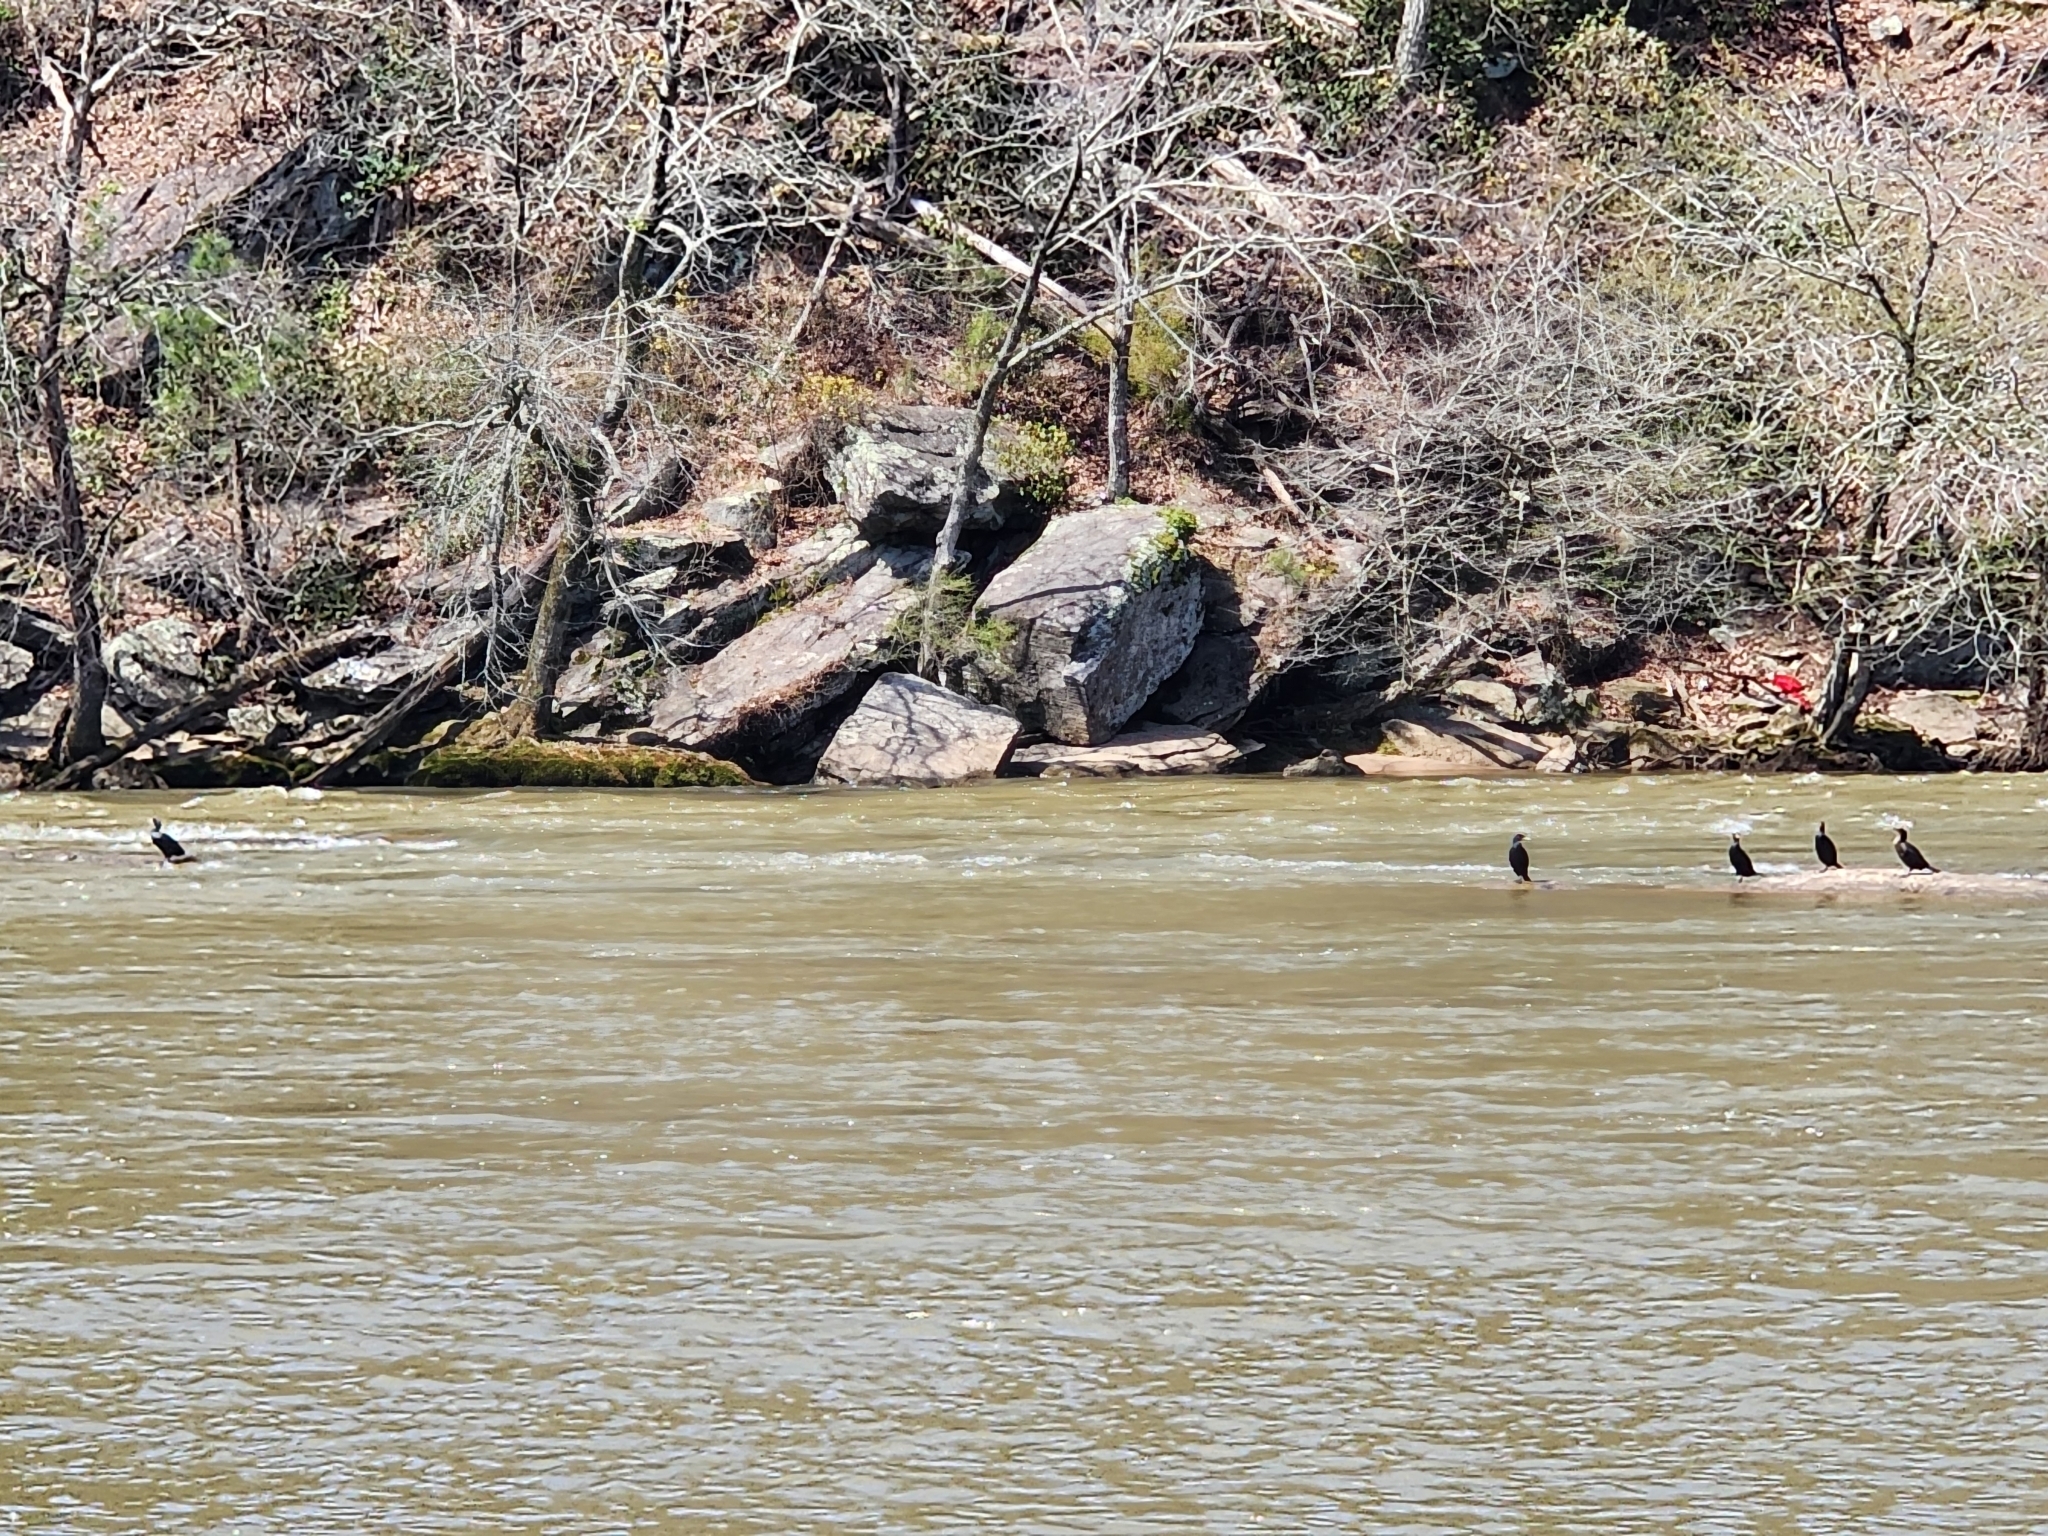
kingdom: Animalia
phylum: Chordata
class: Aves
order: Suliformes
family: Phalacrocoracidae
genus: Phalacrocorax
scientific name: Phalacrocorax auritus
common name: Double-crested cormorant
